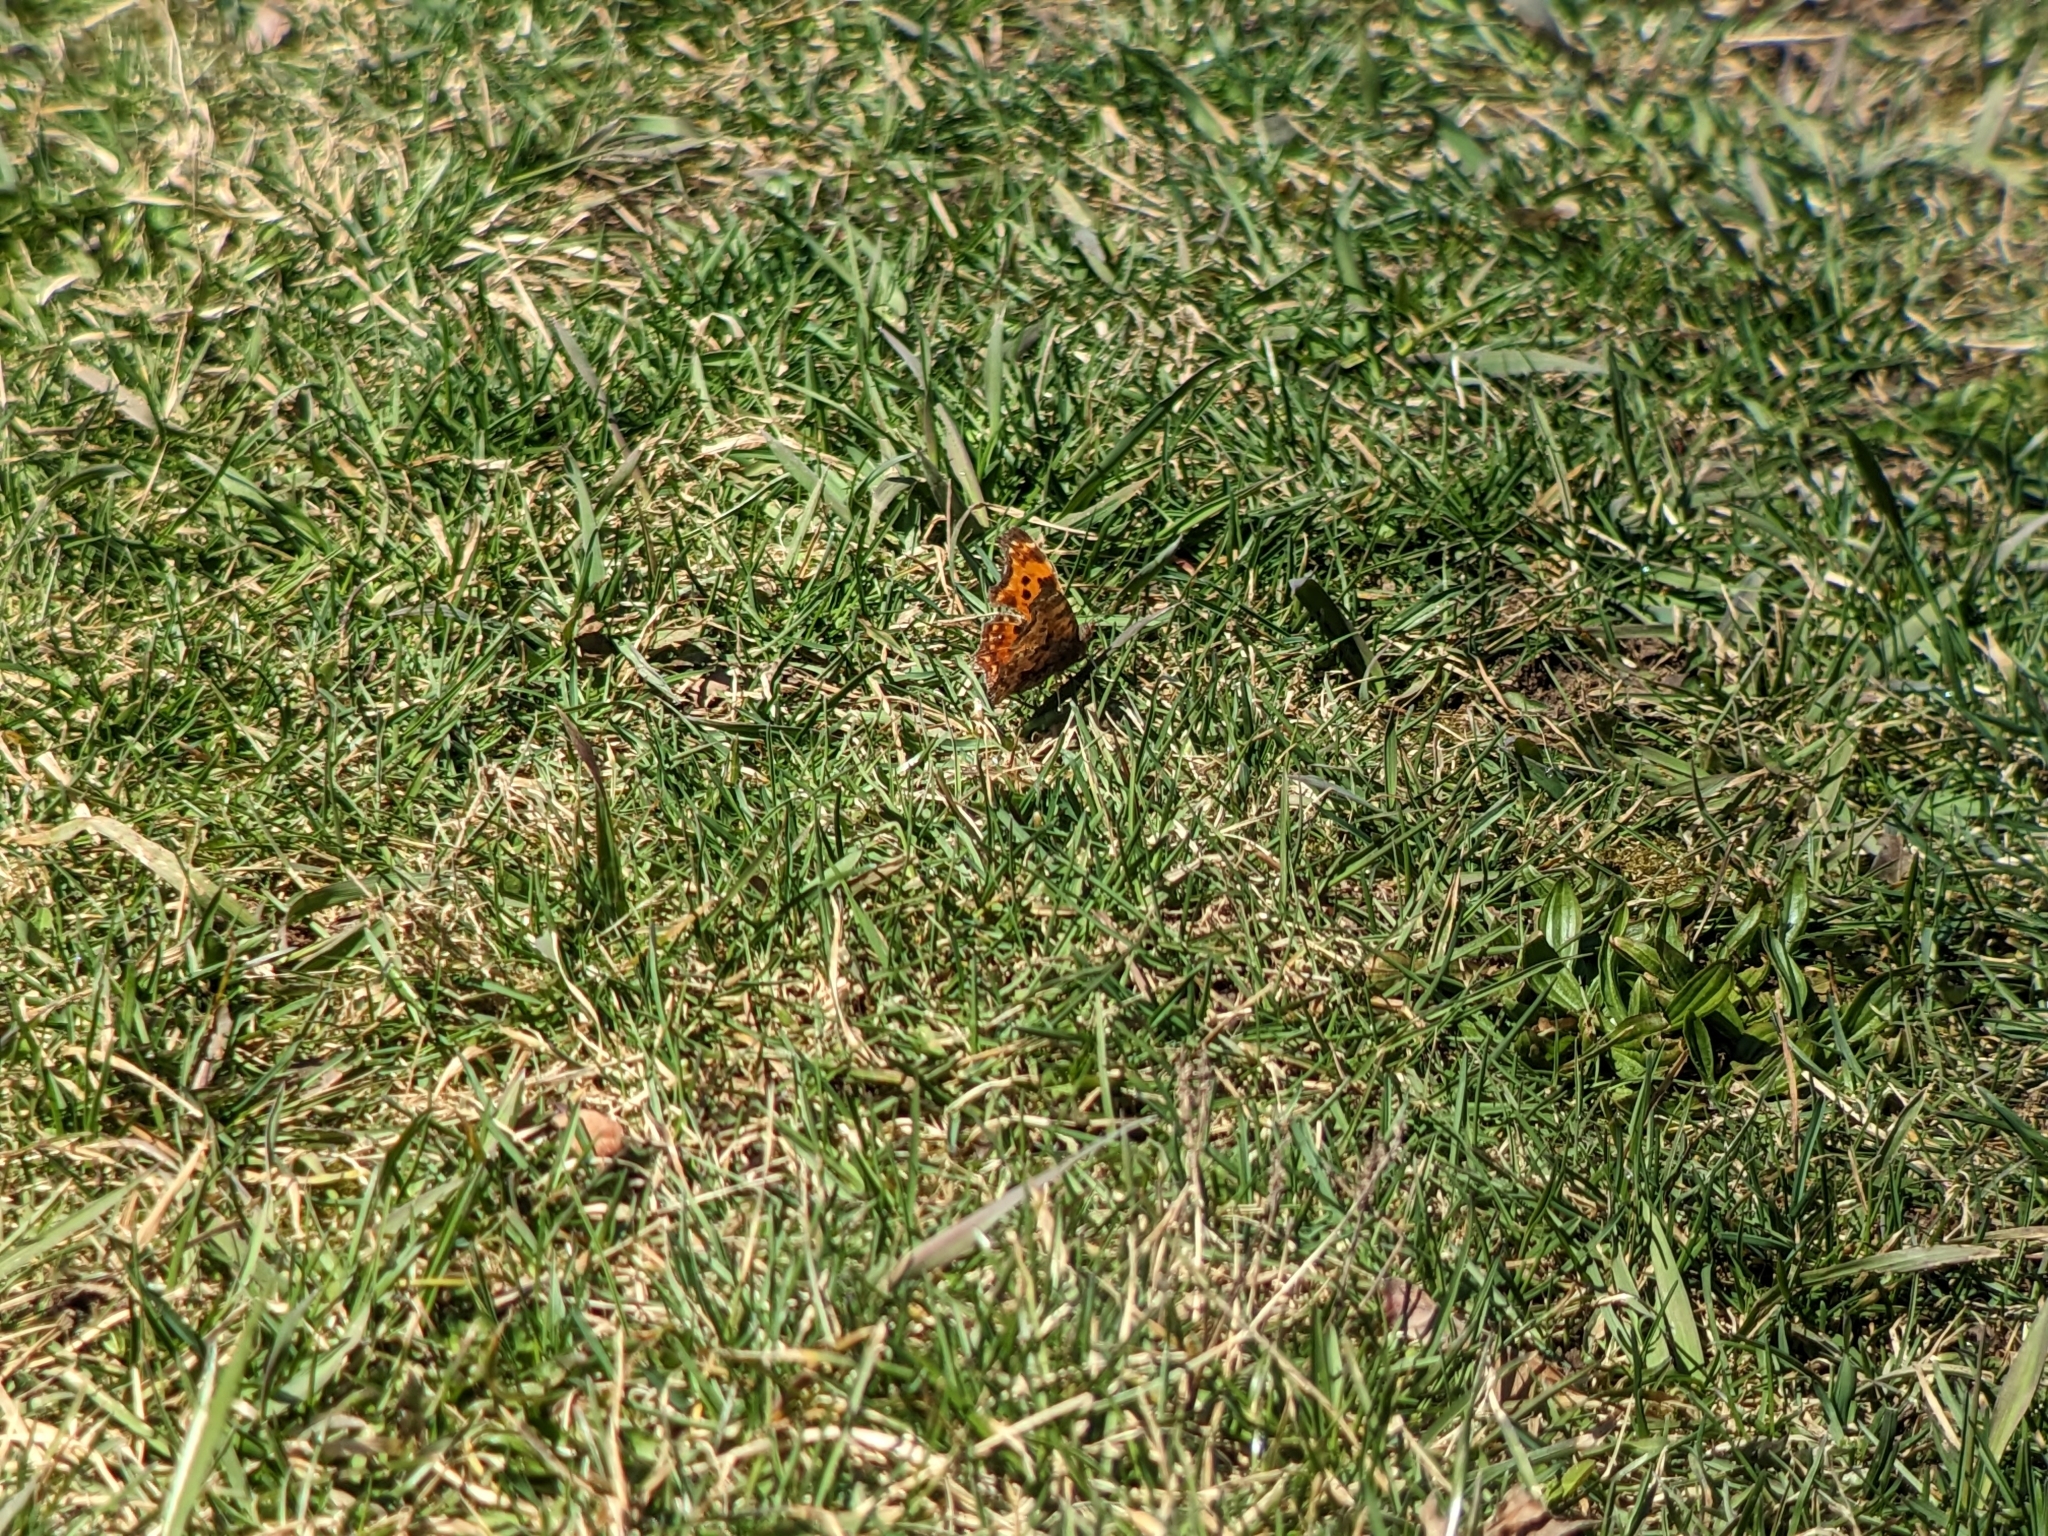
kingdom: Animalia
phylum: Arthropoda
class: Insecta
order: Lepidoptera
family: Nymphalidae
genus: Polygonia
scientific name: Polygonia comma
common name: Eastern comma
